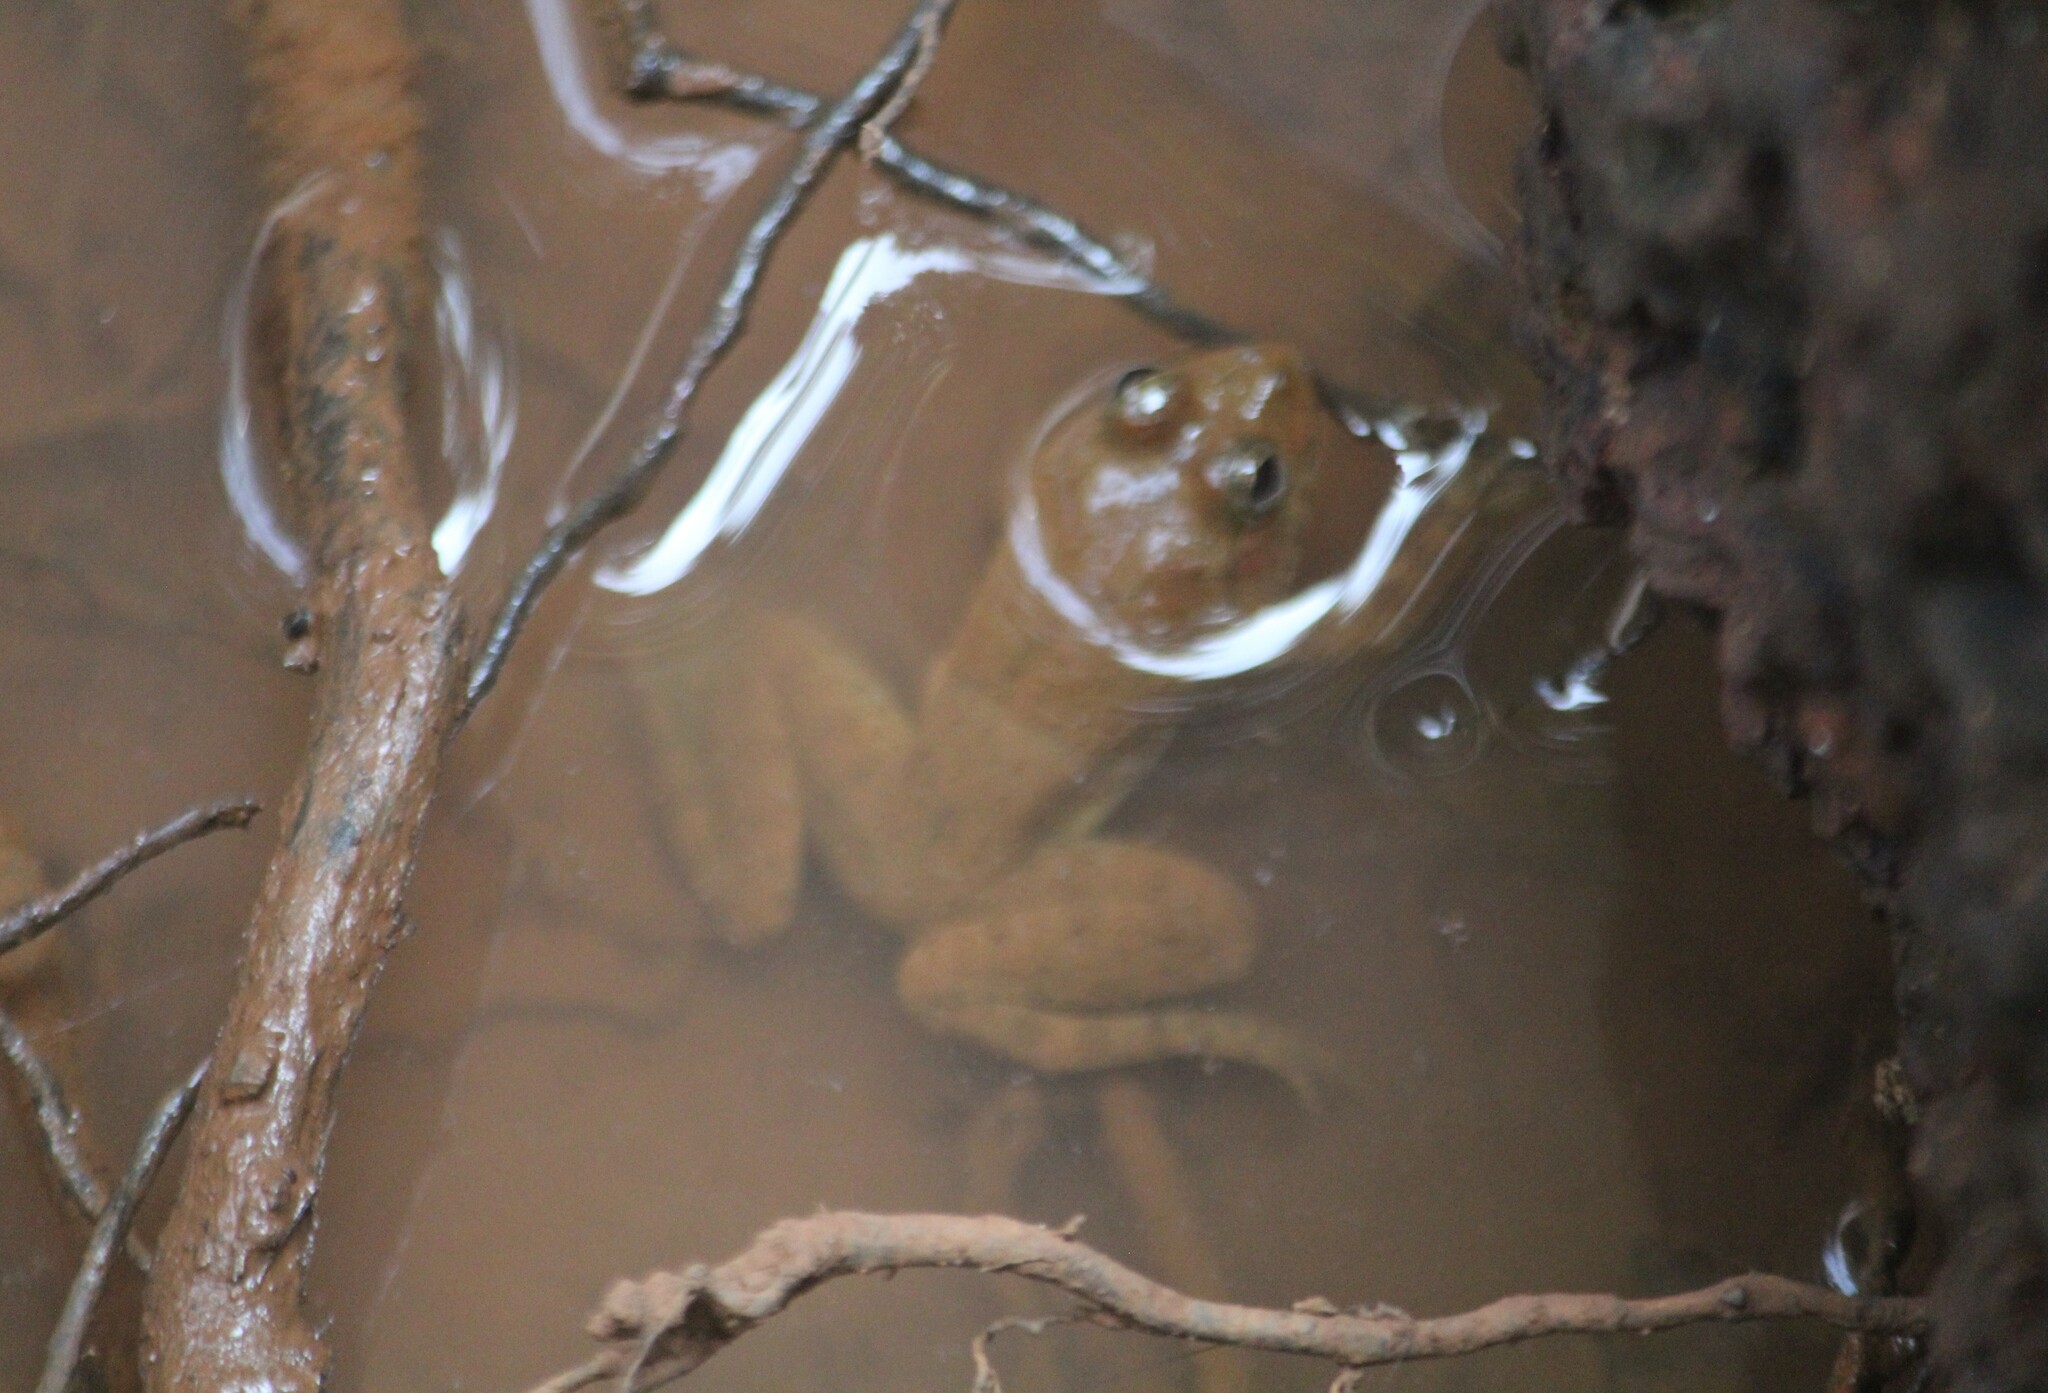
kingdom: Animalia
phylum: Chordata
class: Amphibia
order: Anura
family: Dicroglossidae
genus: Euphlyctis
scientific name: Euphlyctis cyanophlyctis
